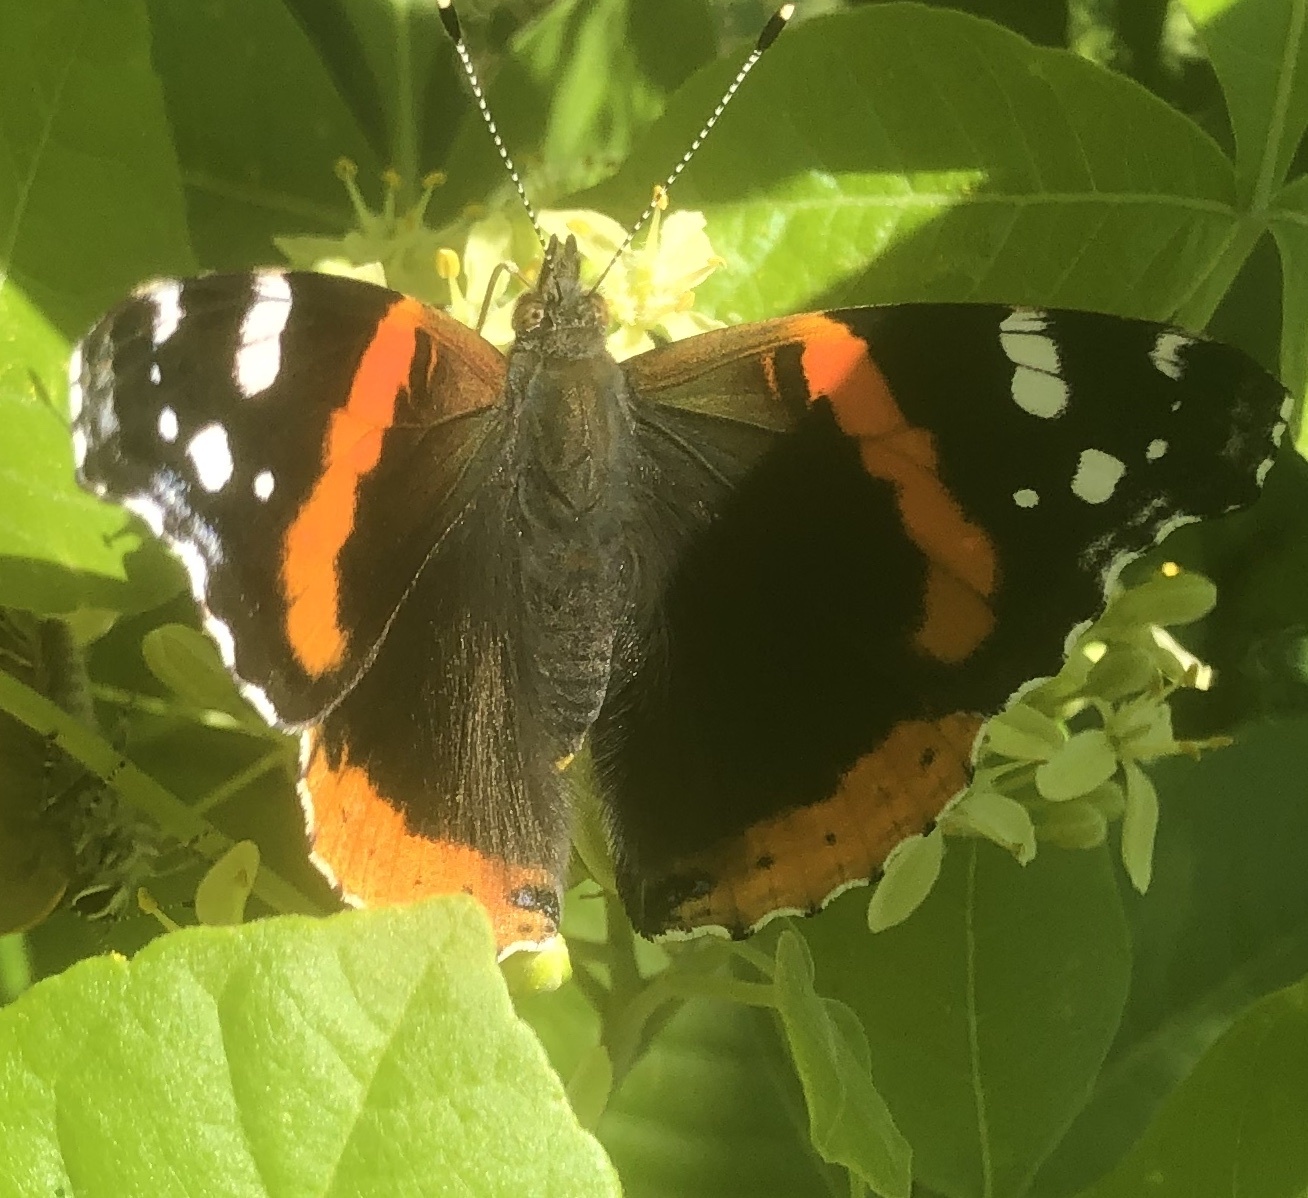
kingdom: Animalia
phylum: Arthropoda
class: Insecta
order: Lepidoptera
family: Nymphalidae
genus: Vanessa
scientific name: Vanessa atalanta
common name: Red admiral
